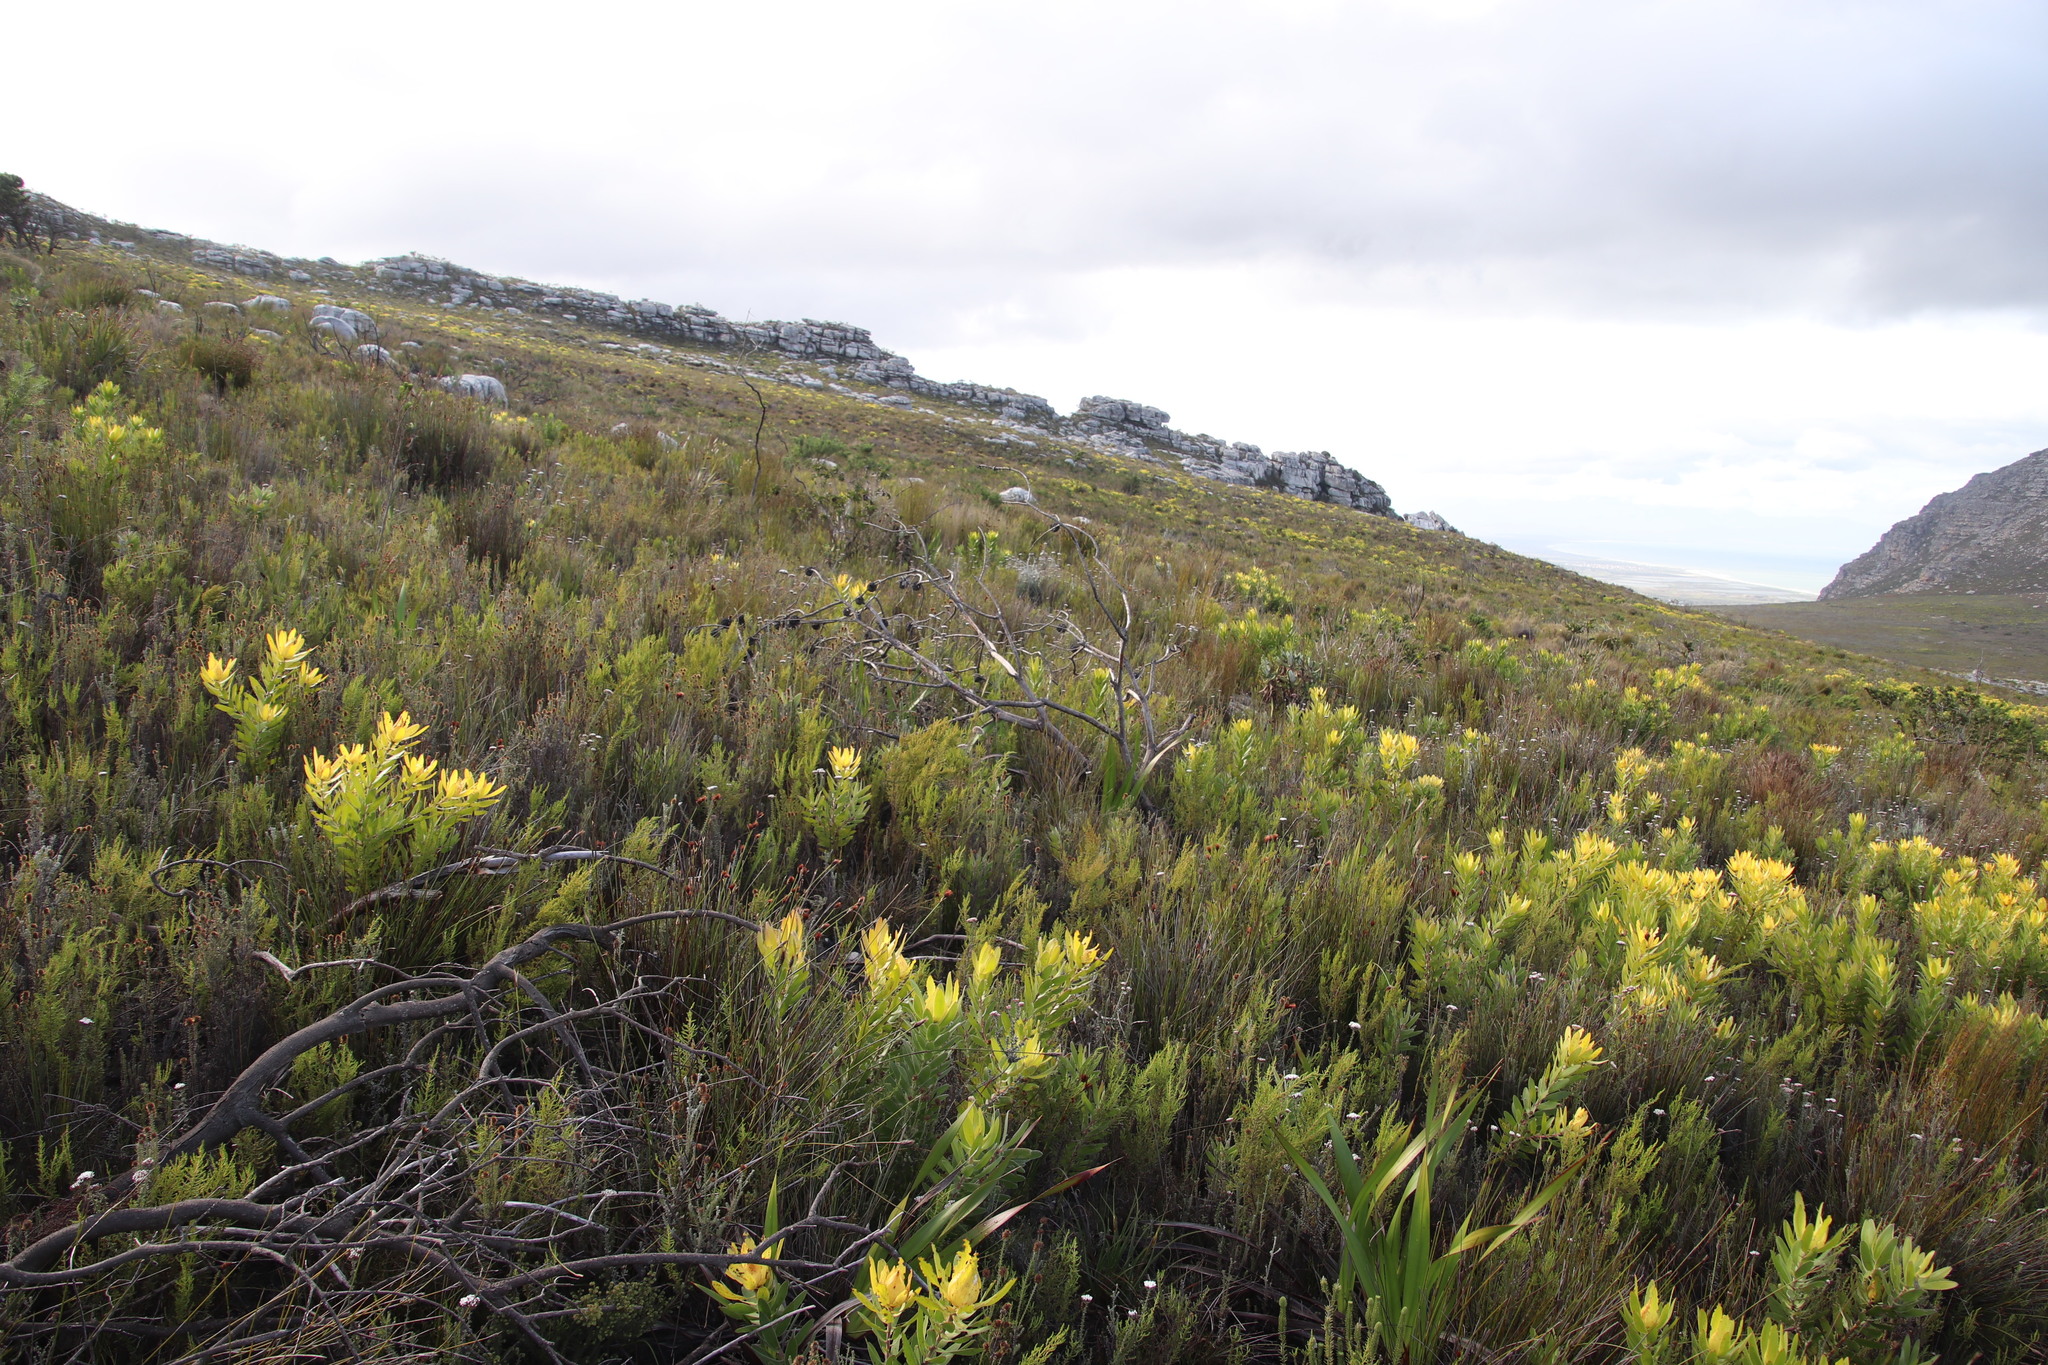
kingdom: Plantae
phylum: Tracheophyta
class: Magnoliopsida
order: Proteales
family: Proteaceae
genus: Leucadendron
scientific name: Leucadendron laureolum
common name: Golden sunshinebush
